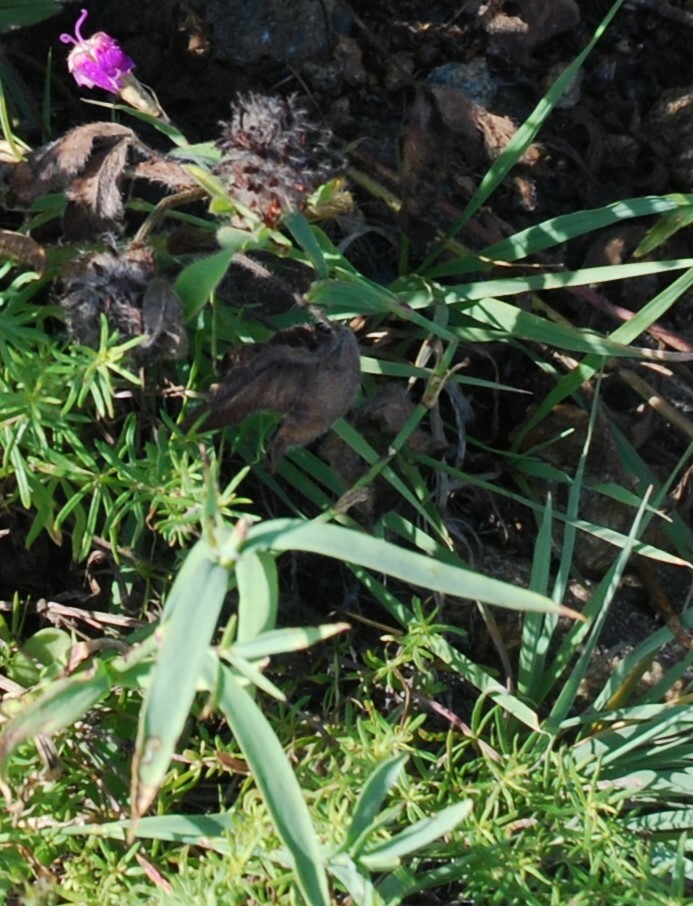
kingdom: Plantae
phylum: Tracheophyta
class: Magnoliopsida
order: Caryophyllales
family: Caryophyllaceae
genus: Dianthus
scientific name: Dianthus chinensis
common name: Rainbow pink
